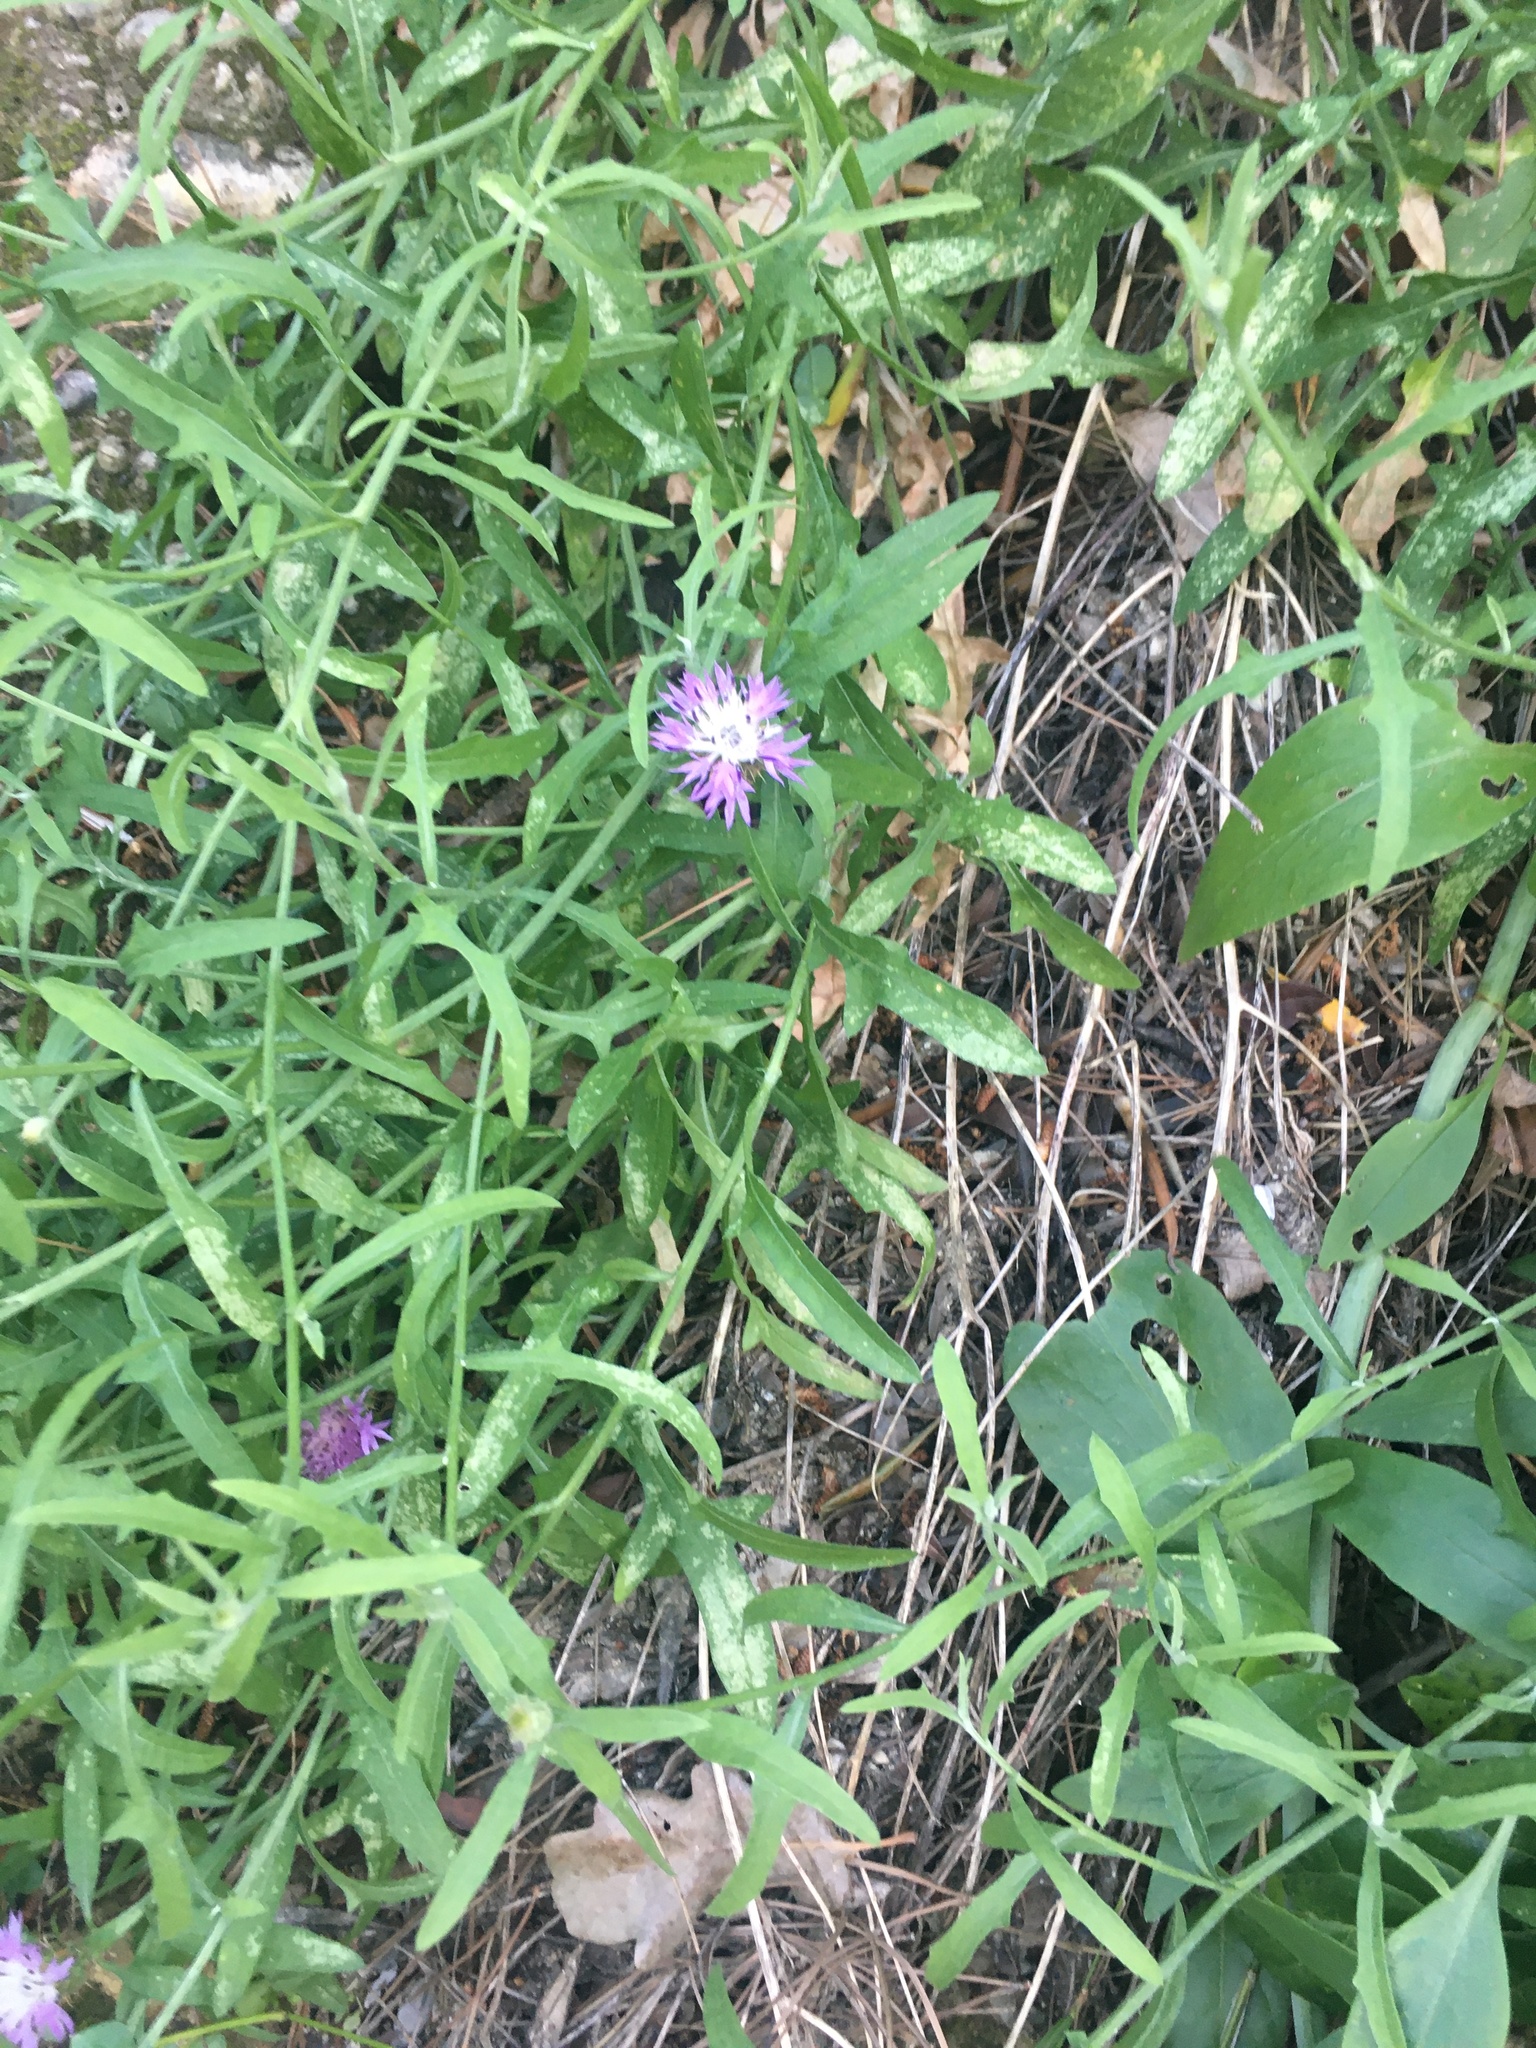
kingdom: Plantae
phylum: Tracheophyta
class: Magnoliopsida
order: Asterales
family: Asteraceae
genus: Centaurea
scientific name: Centaurea aspera
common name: Rough star-thistle
